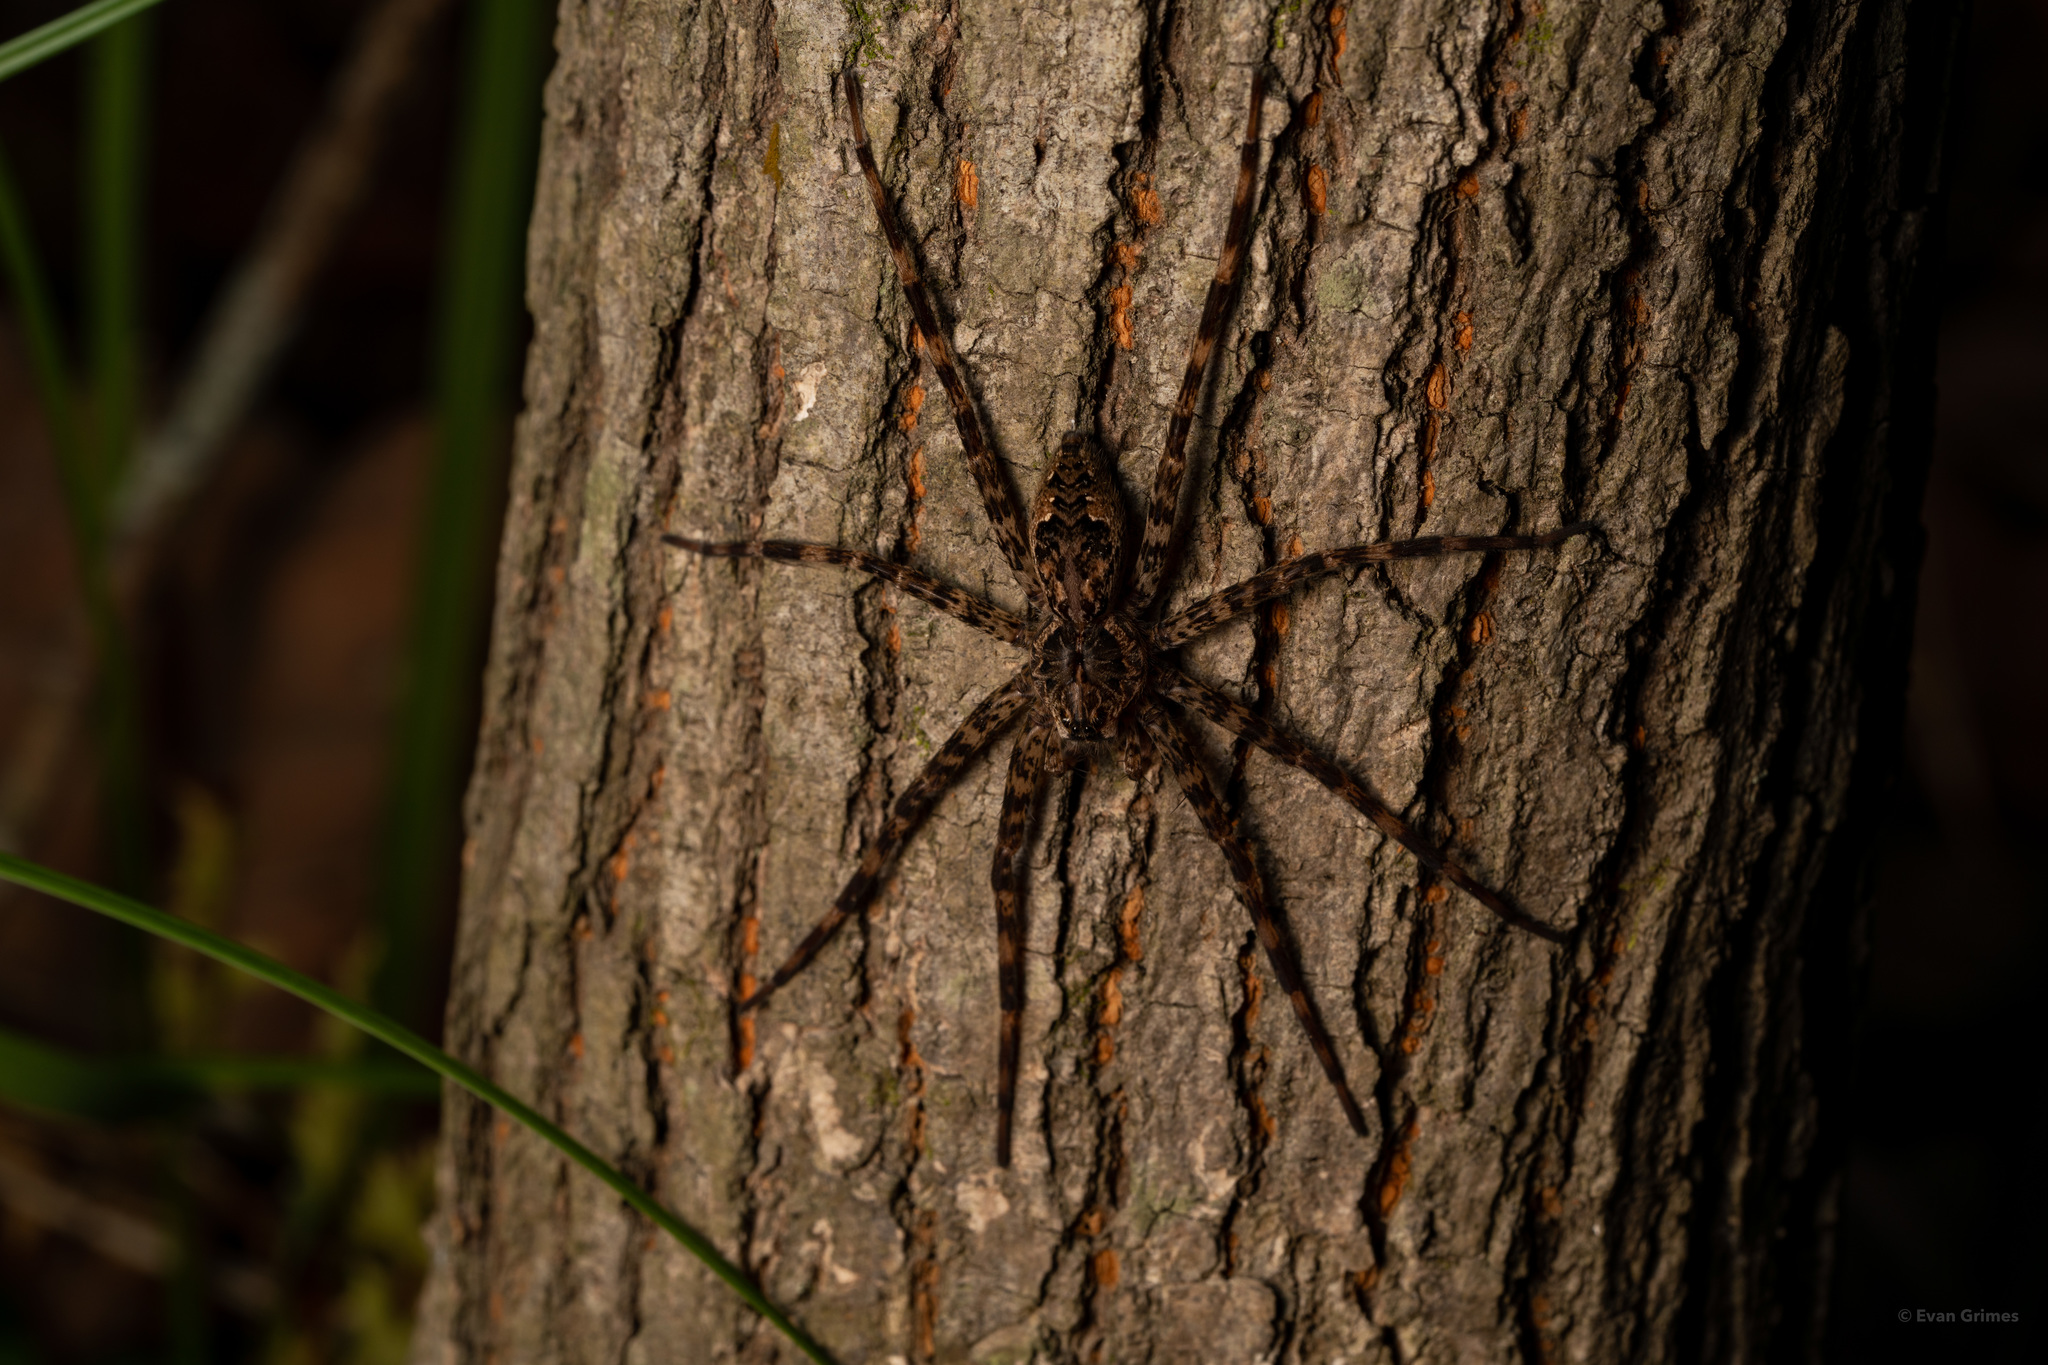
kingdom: Animalia
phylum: Arthropoda
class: Arachnida
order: Araneae
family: Pisauridae
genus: Dolomedes
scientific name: Dolomedes tenebrosus
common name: Dark fishing spider
